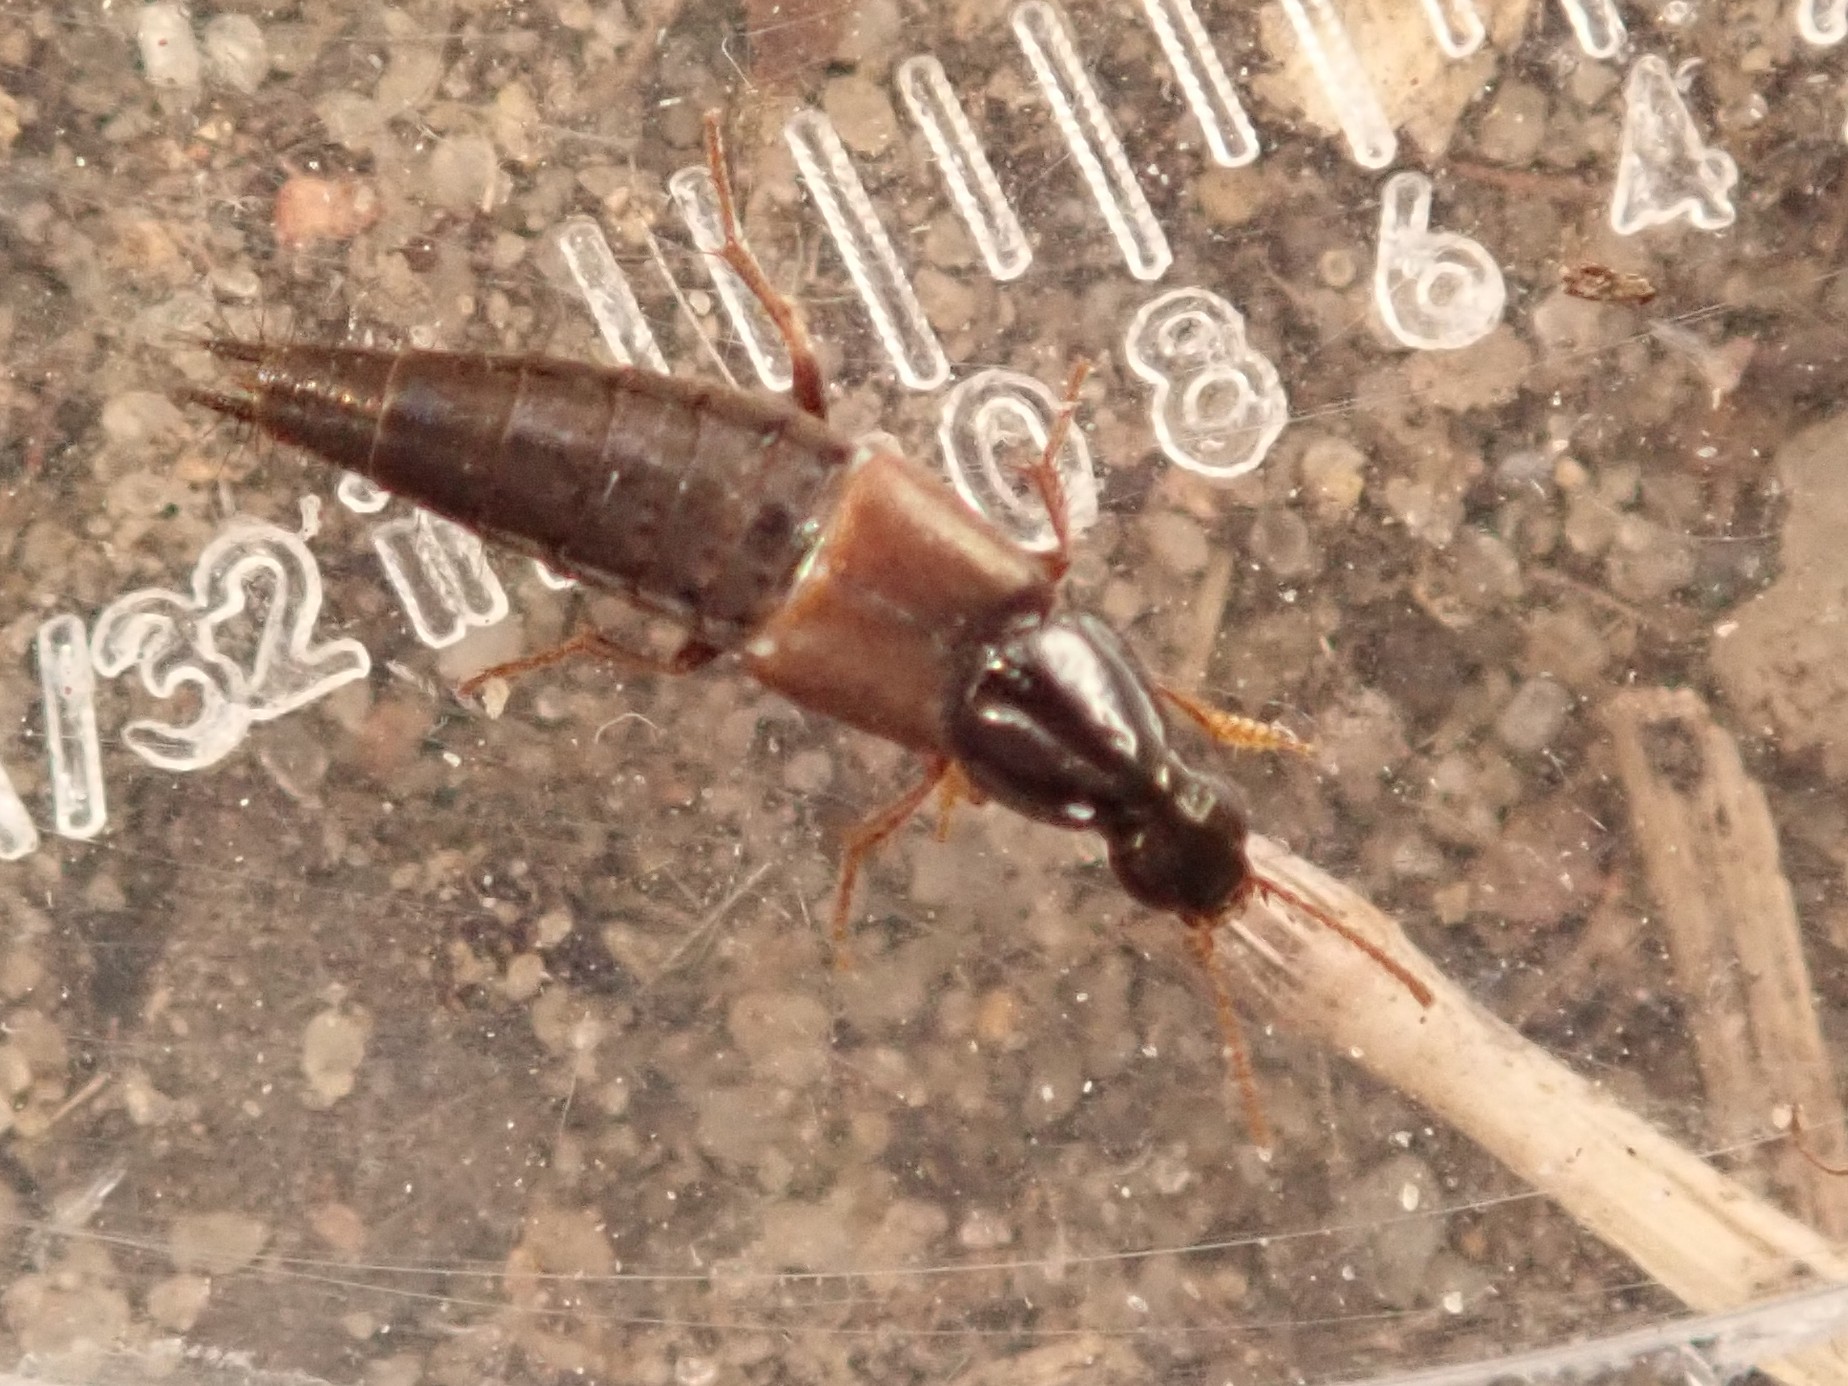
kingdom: Animalia
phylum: Arthropoda
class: Insecta
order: Coleoptera
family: Staphylinidae
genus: Quedius
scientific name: Quedius semiaeneus
